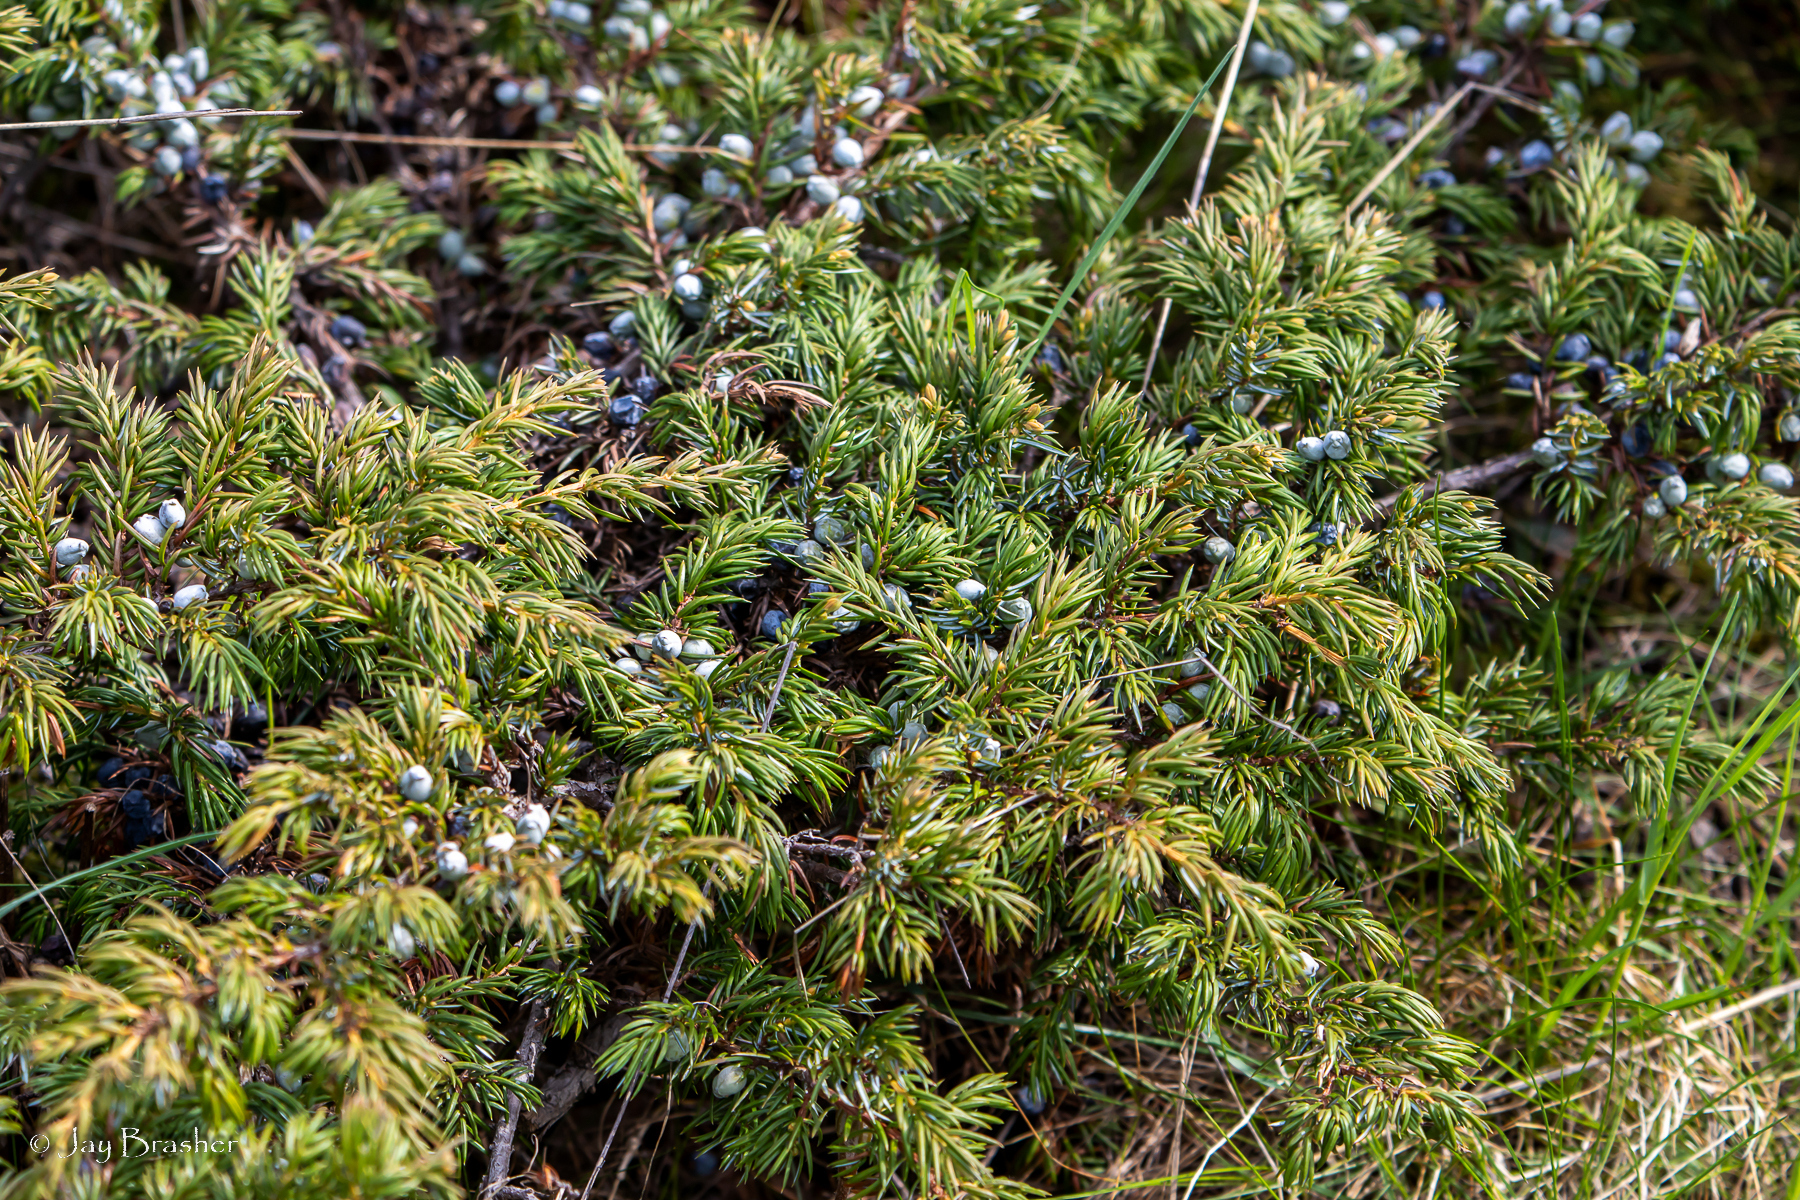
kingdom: Plantae
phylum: Tracheophyta
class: Pinopsida
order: Pinales
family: Cupressaceae
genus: Juniperus
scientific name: Juniperus communis
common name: Common juniper
